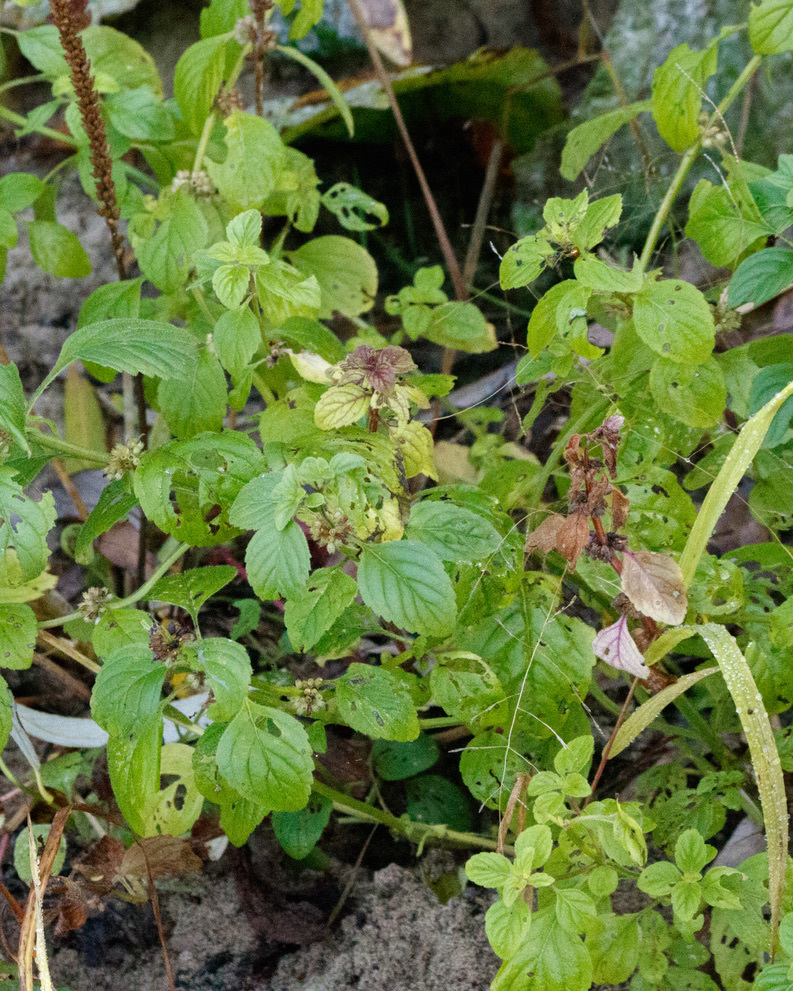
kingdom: Plantae
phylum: Tracheophyta
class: Magnoliopsida
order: Lamiales
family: Lamiaceae
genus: Mentha
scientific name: Mentha arvensis
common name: Corn mint
